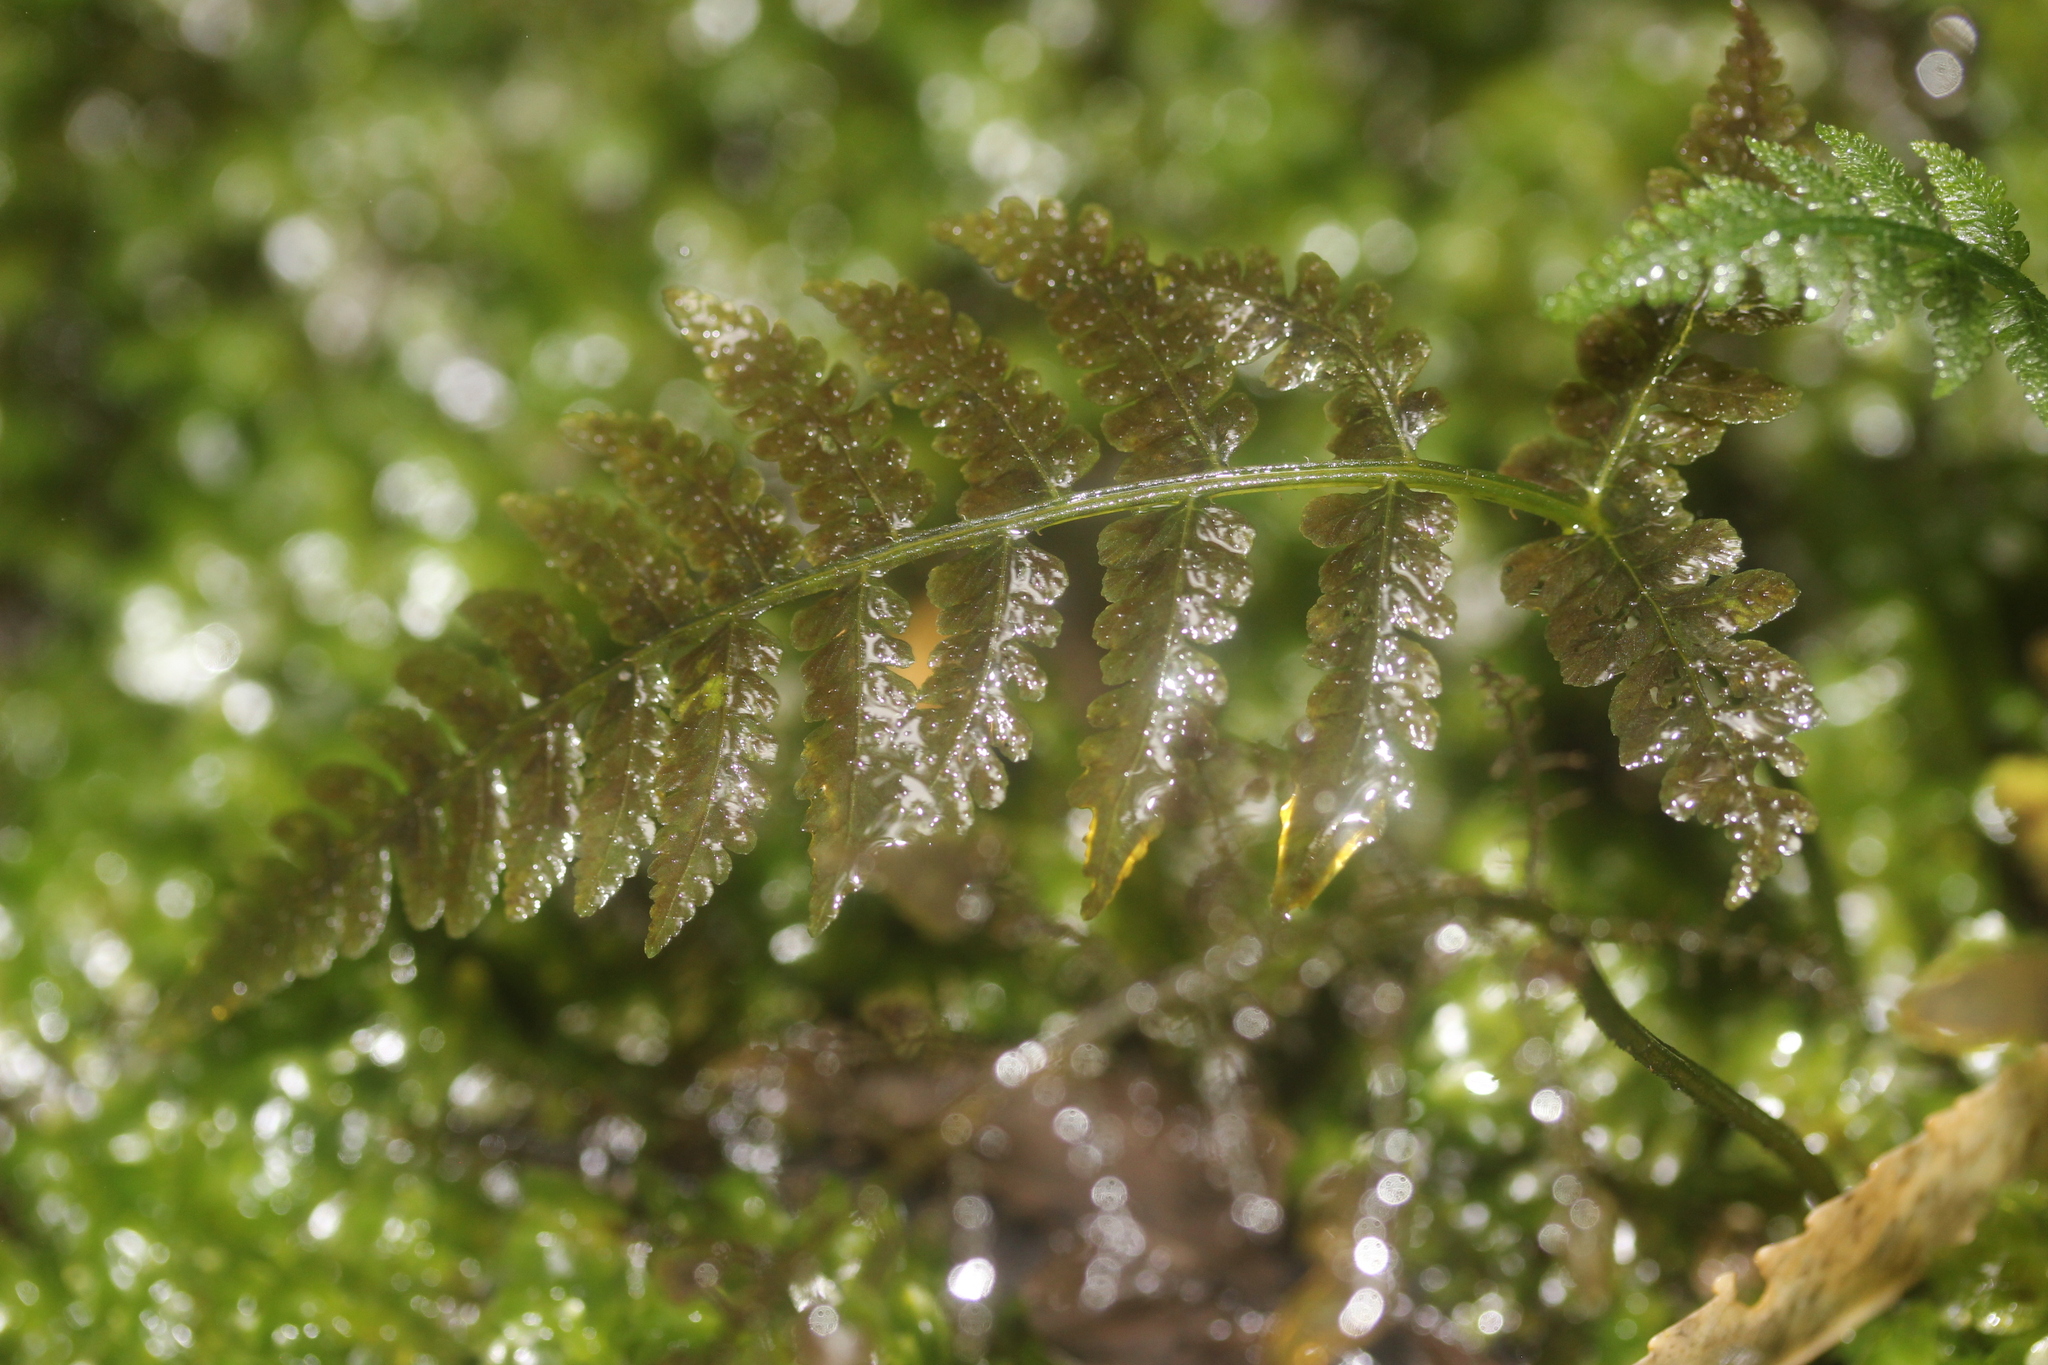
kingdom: Plantae
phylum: Tracheophyta
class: Polypodiopsida
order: Polypodiales
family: Athyriaceae
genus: Diplazium
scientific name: Diplazium congruum
